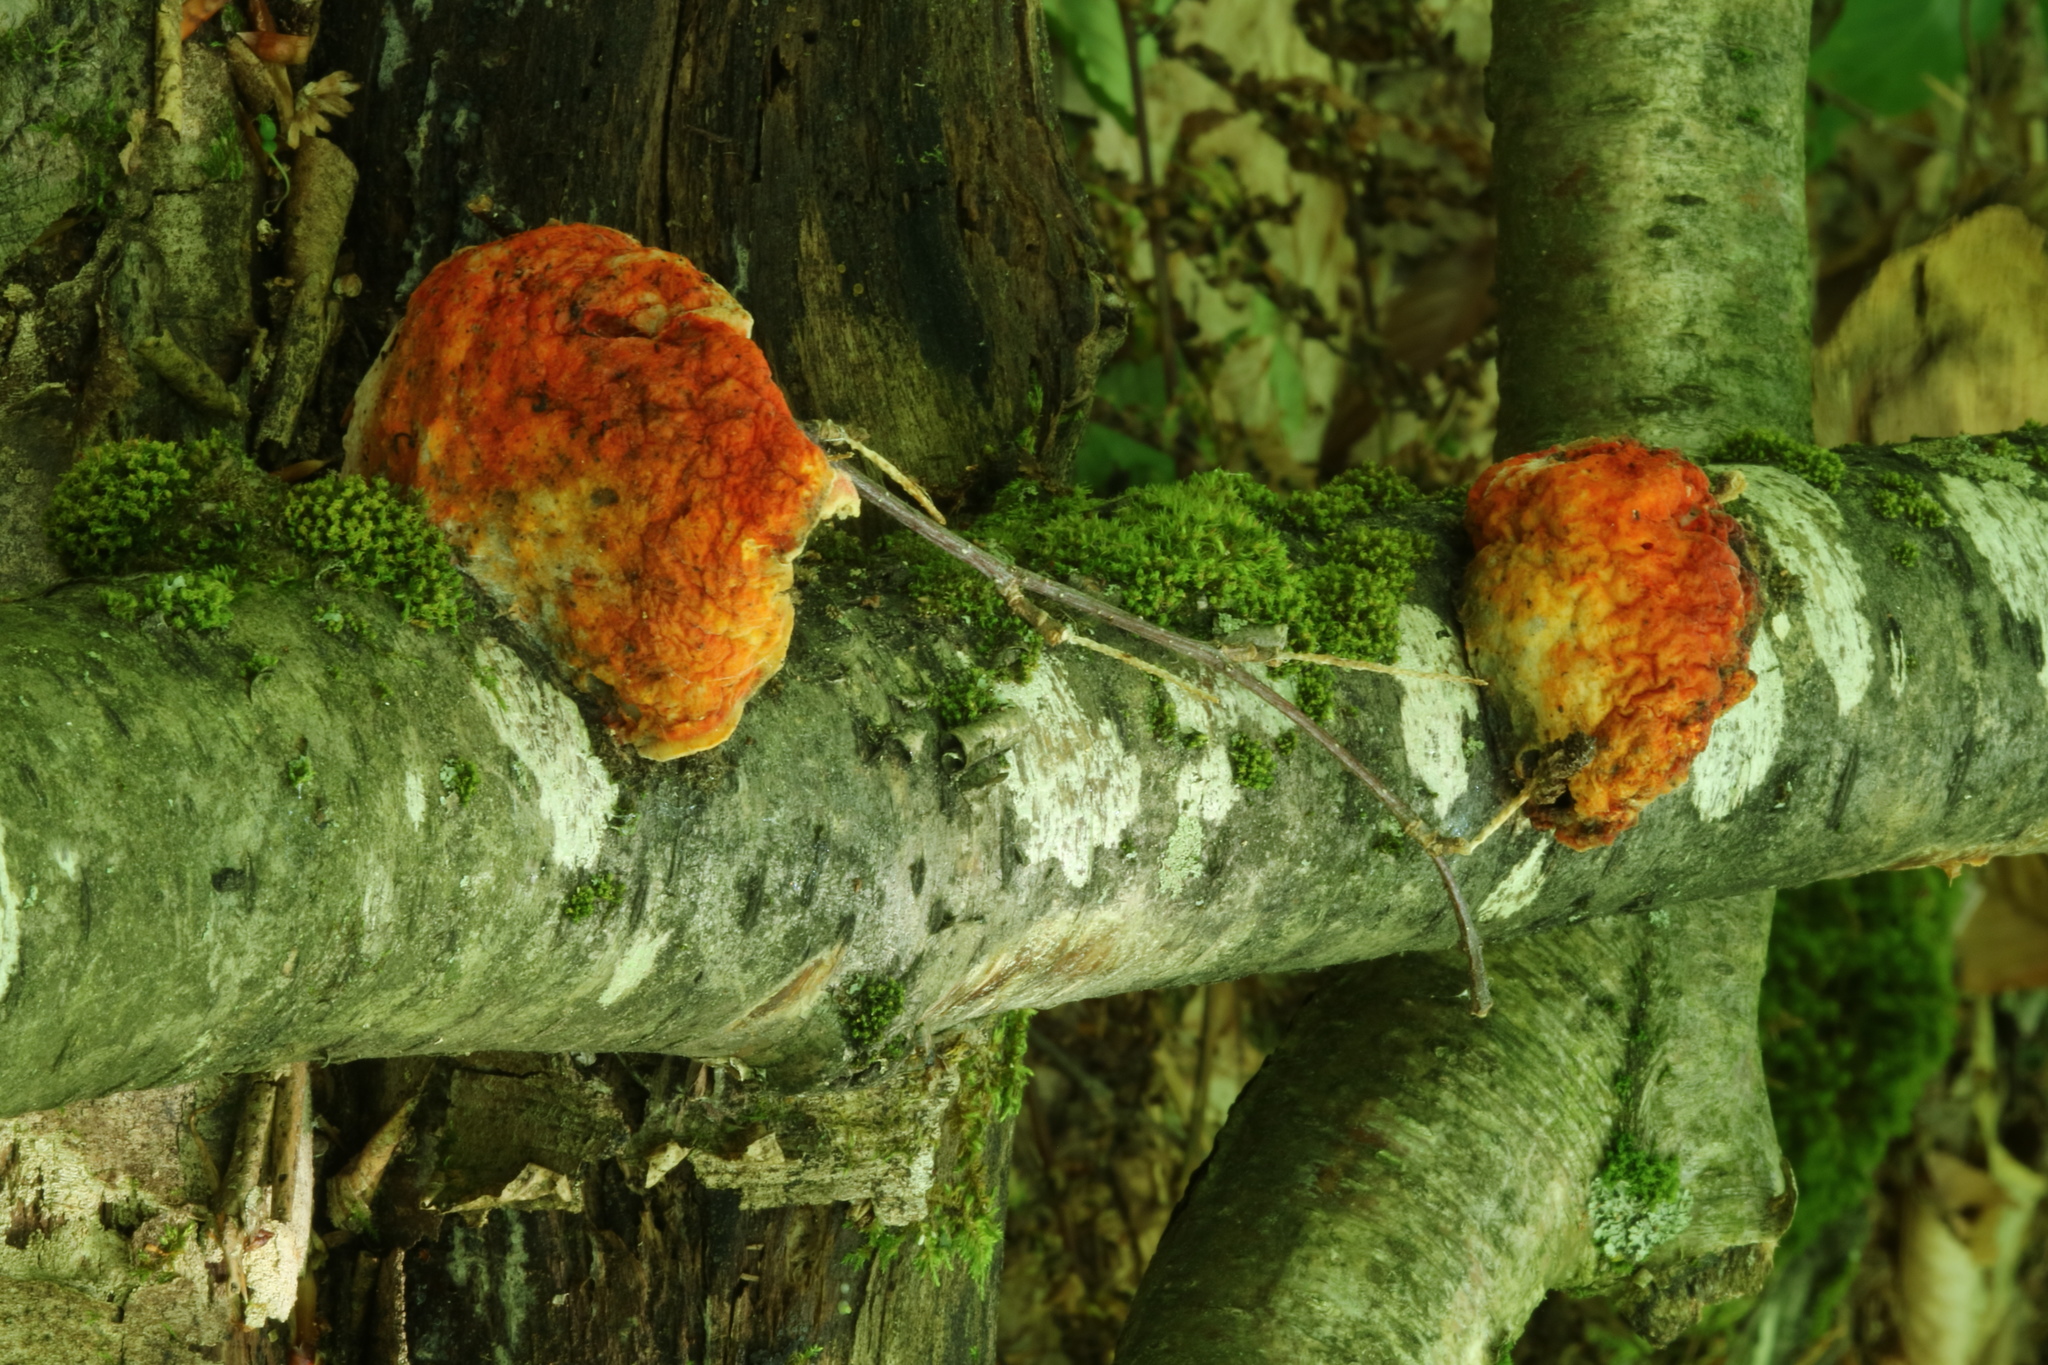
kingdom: Fungi
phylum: Ascomycota
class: Sordariomycetes
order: Hypocreales
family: Hypocreaceae
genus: Hypomyces
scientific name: Hypomyces aurantius
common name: Orange polypore mould
